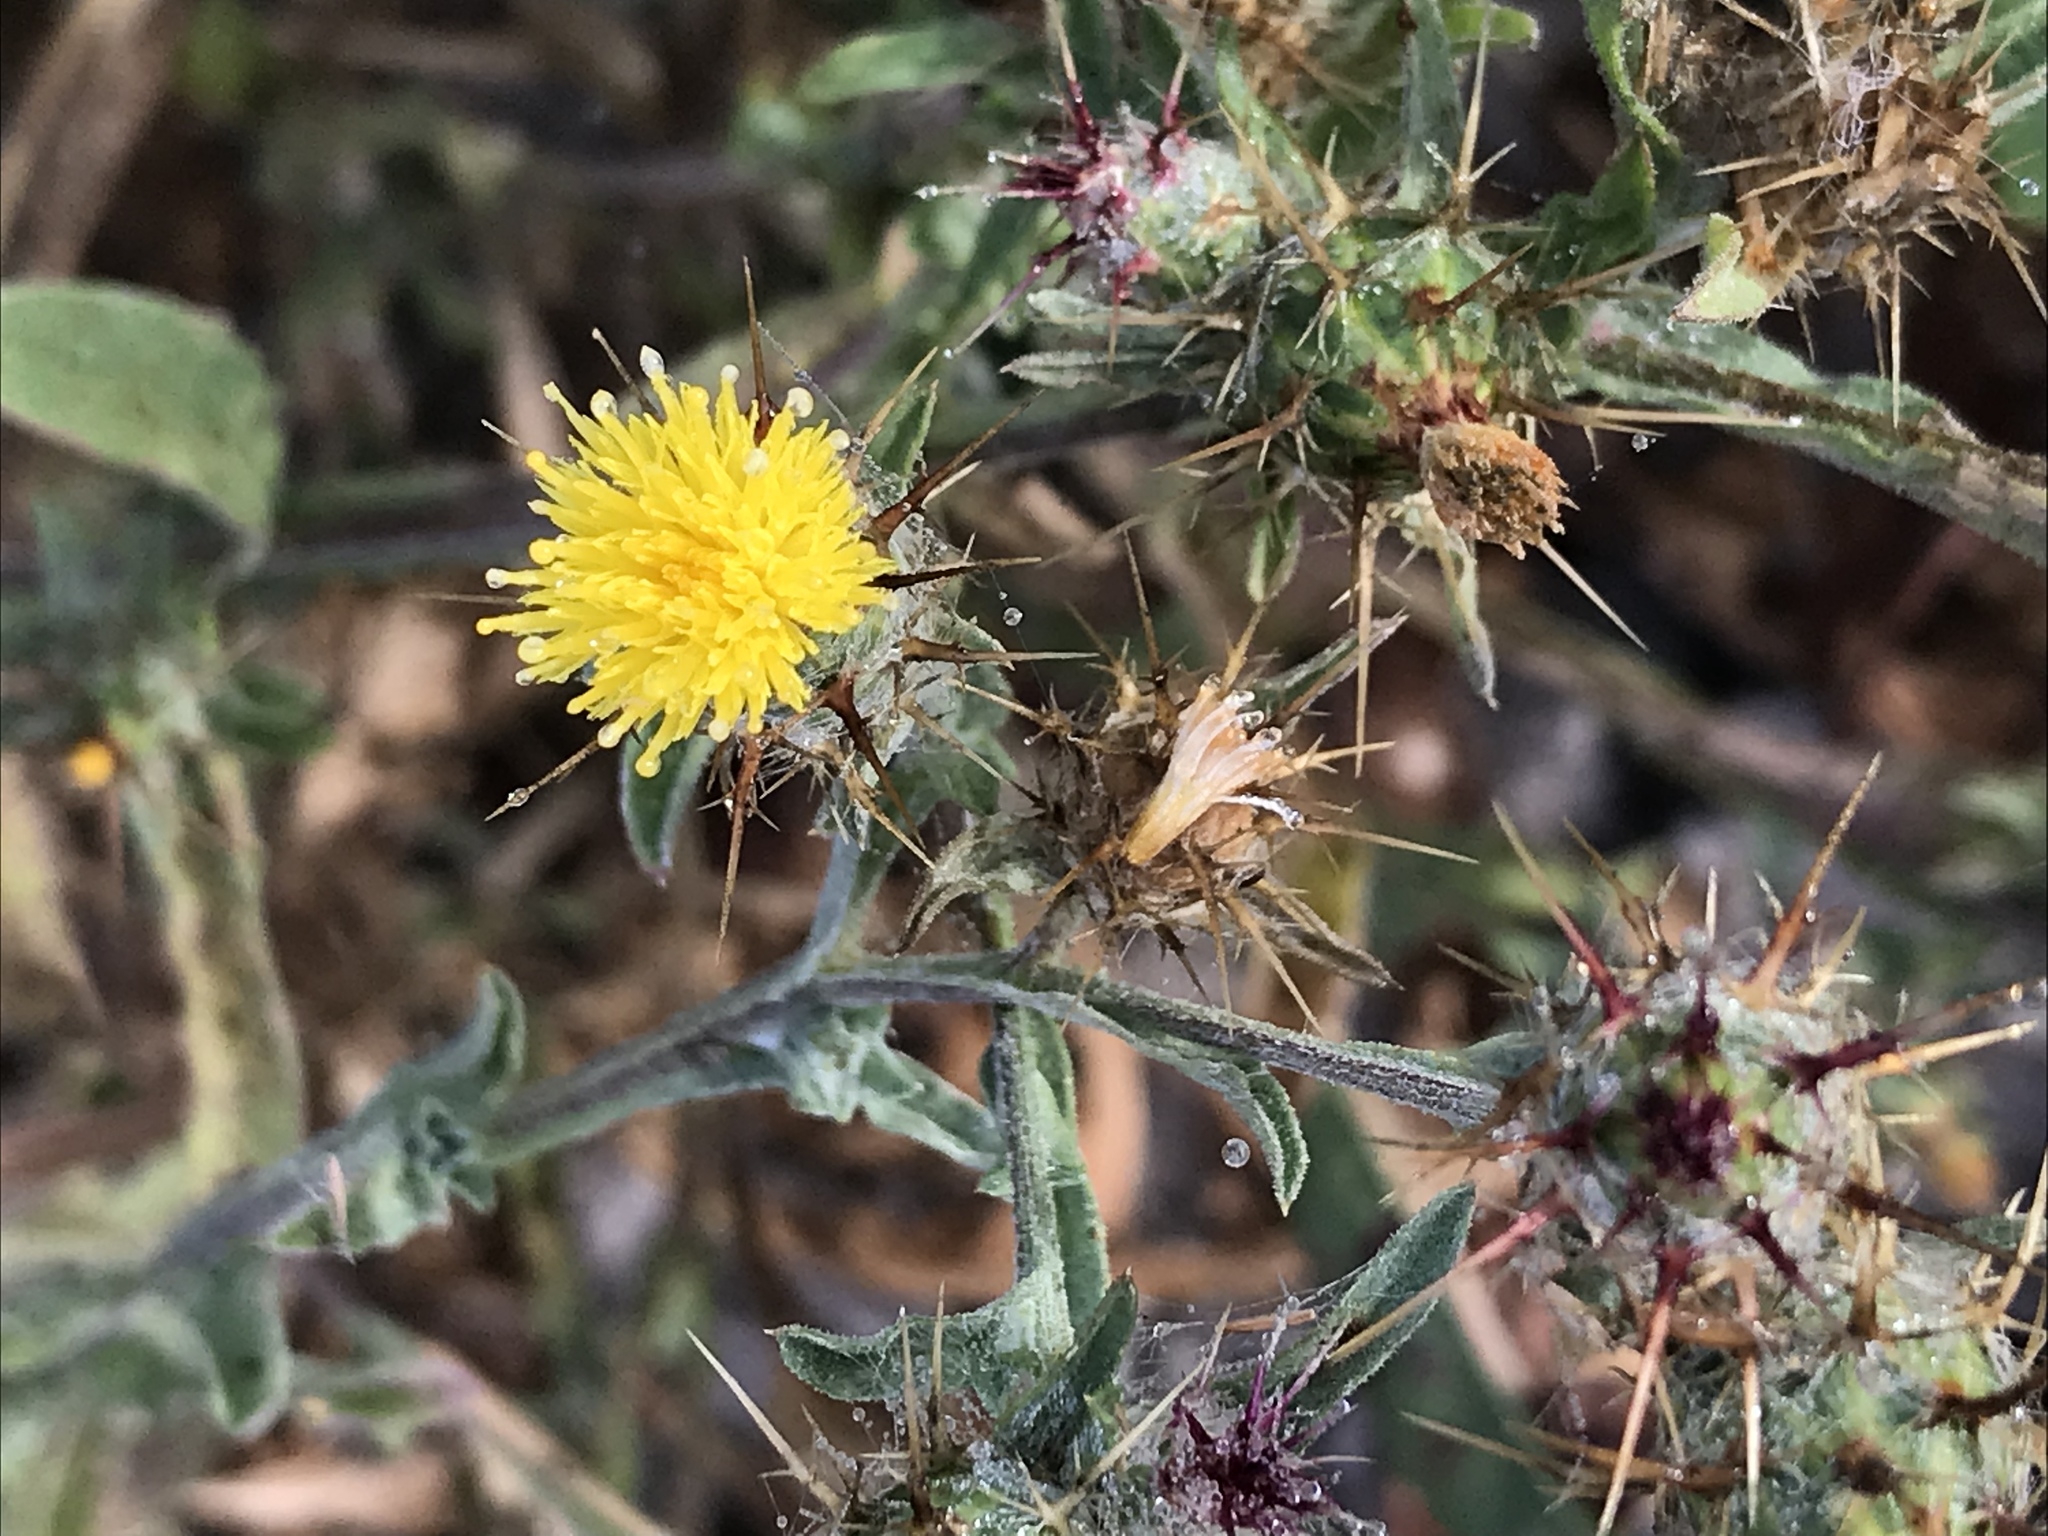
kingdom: Plantae
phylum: Tracheophyta
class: Magnoliopsida
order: Asterales
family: Asteraceae
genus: Centaurea
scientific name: Centaurea melitensis
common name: Maltese star-thistle
